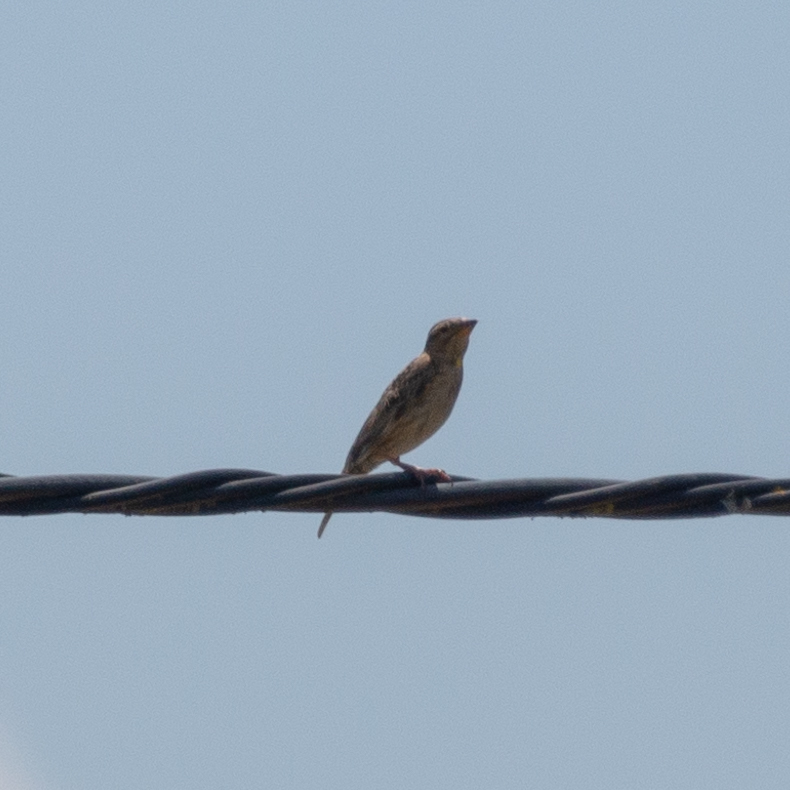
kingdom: Animalia
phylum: Chordata
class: Aves
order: Passeriformes
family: Passeridae
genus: Petronia
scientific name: Petronia petronia
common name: Rock sparrow
